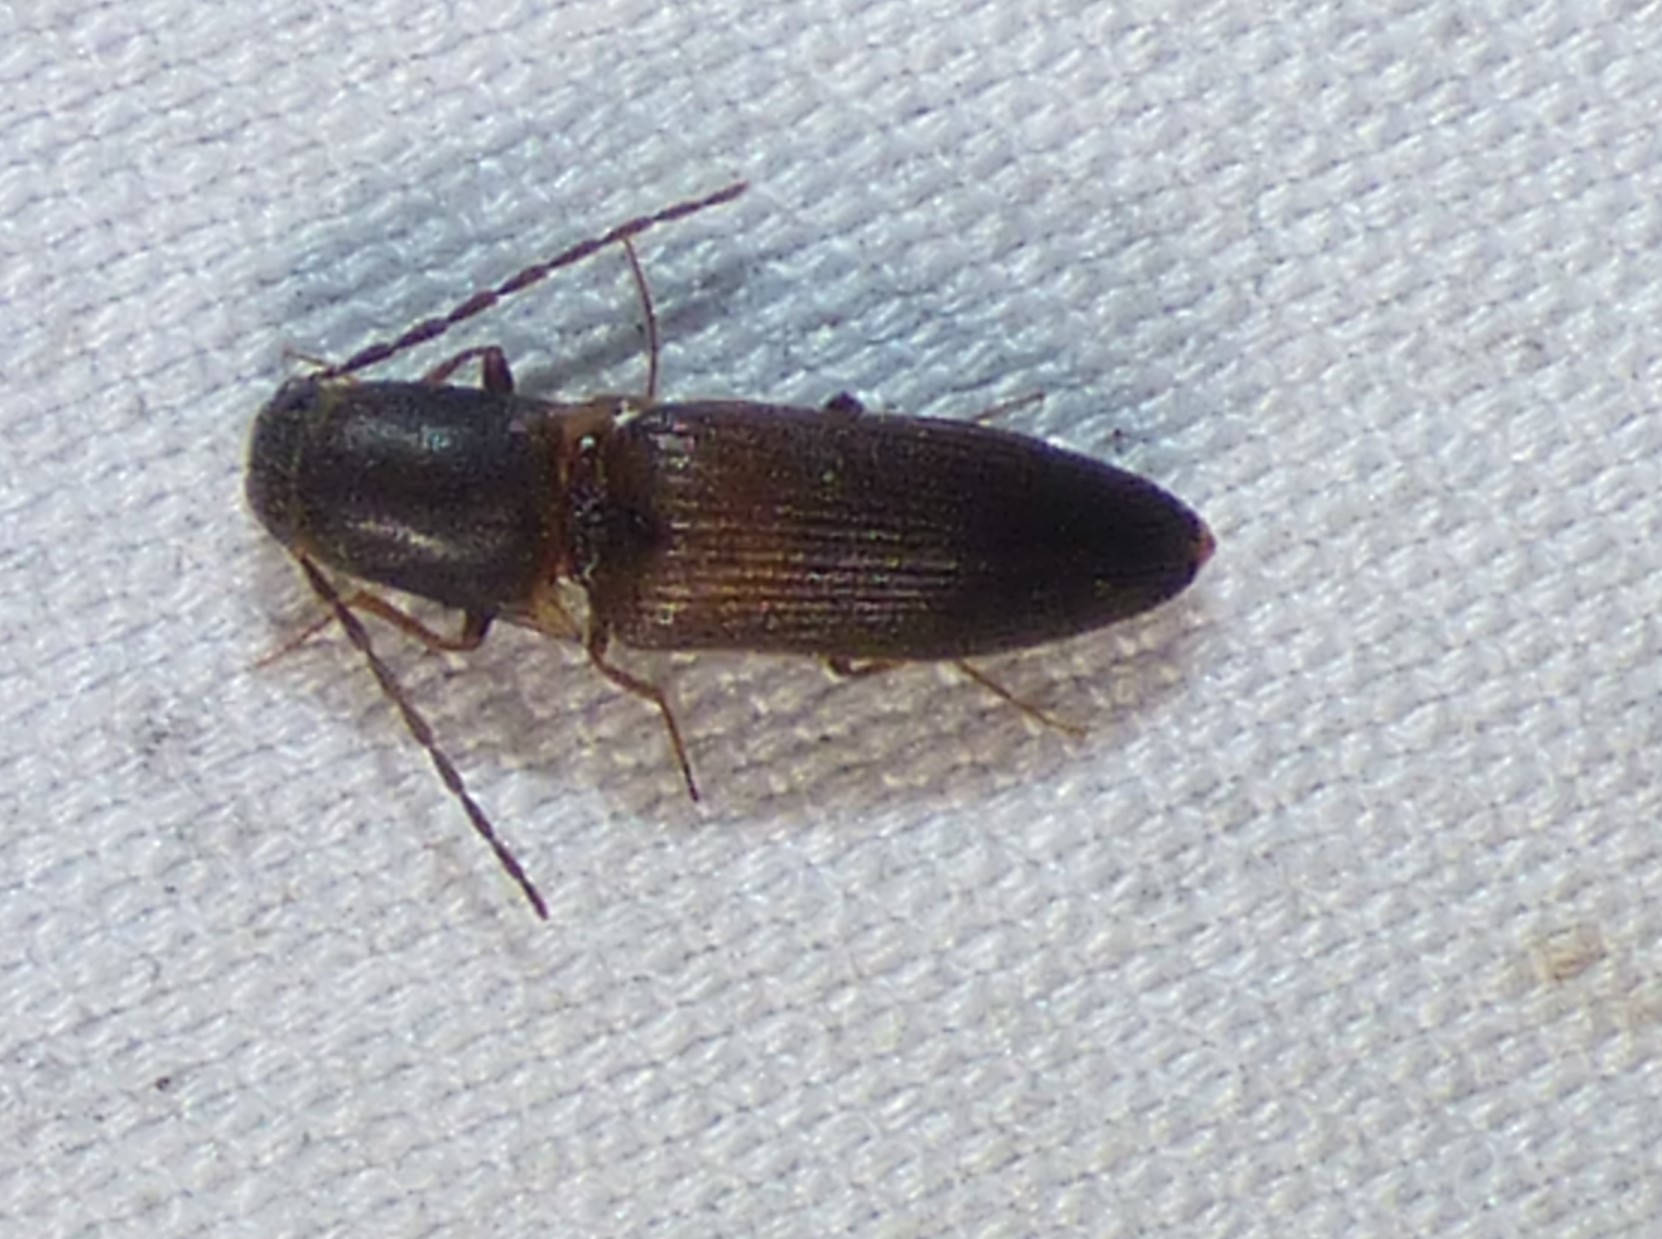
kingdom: Animalia
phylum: Arthropoda
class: Insecta
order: Coleoptera
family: Elateridae
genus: Dolerosomus
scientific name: Dolerosomus silaceus
